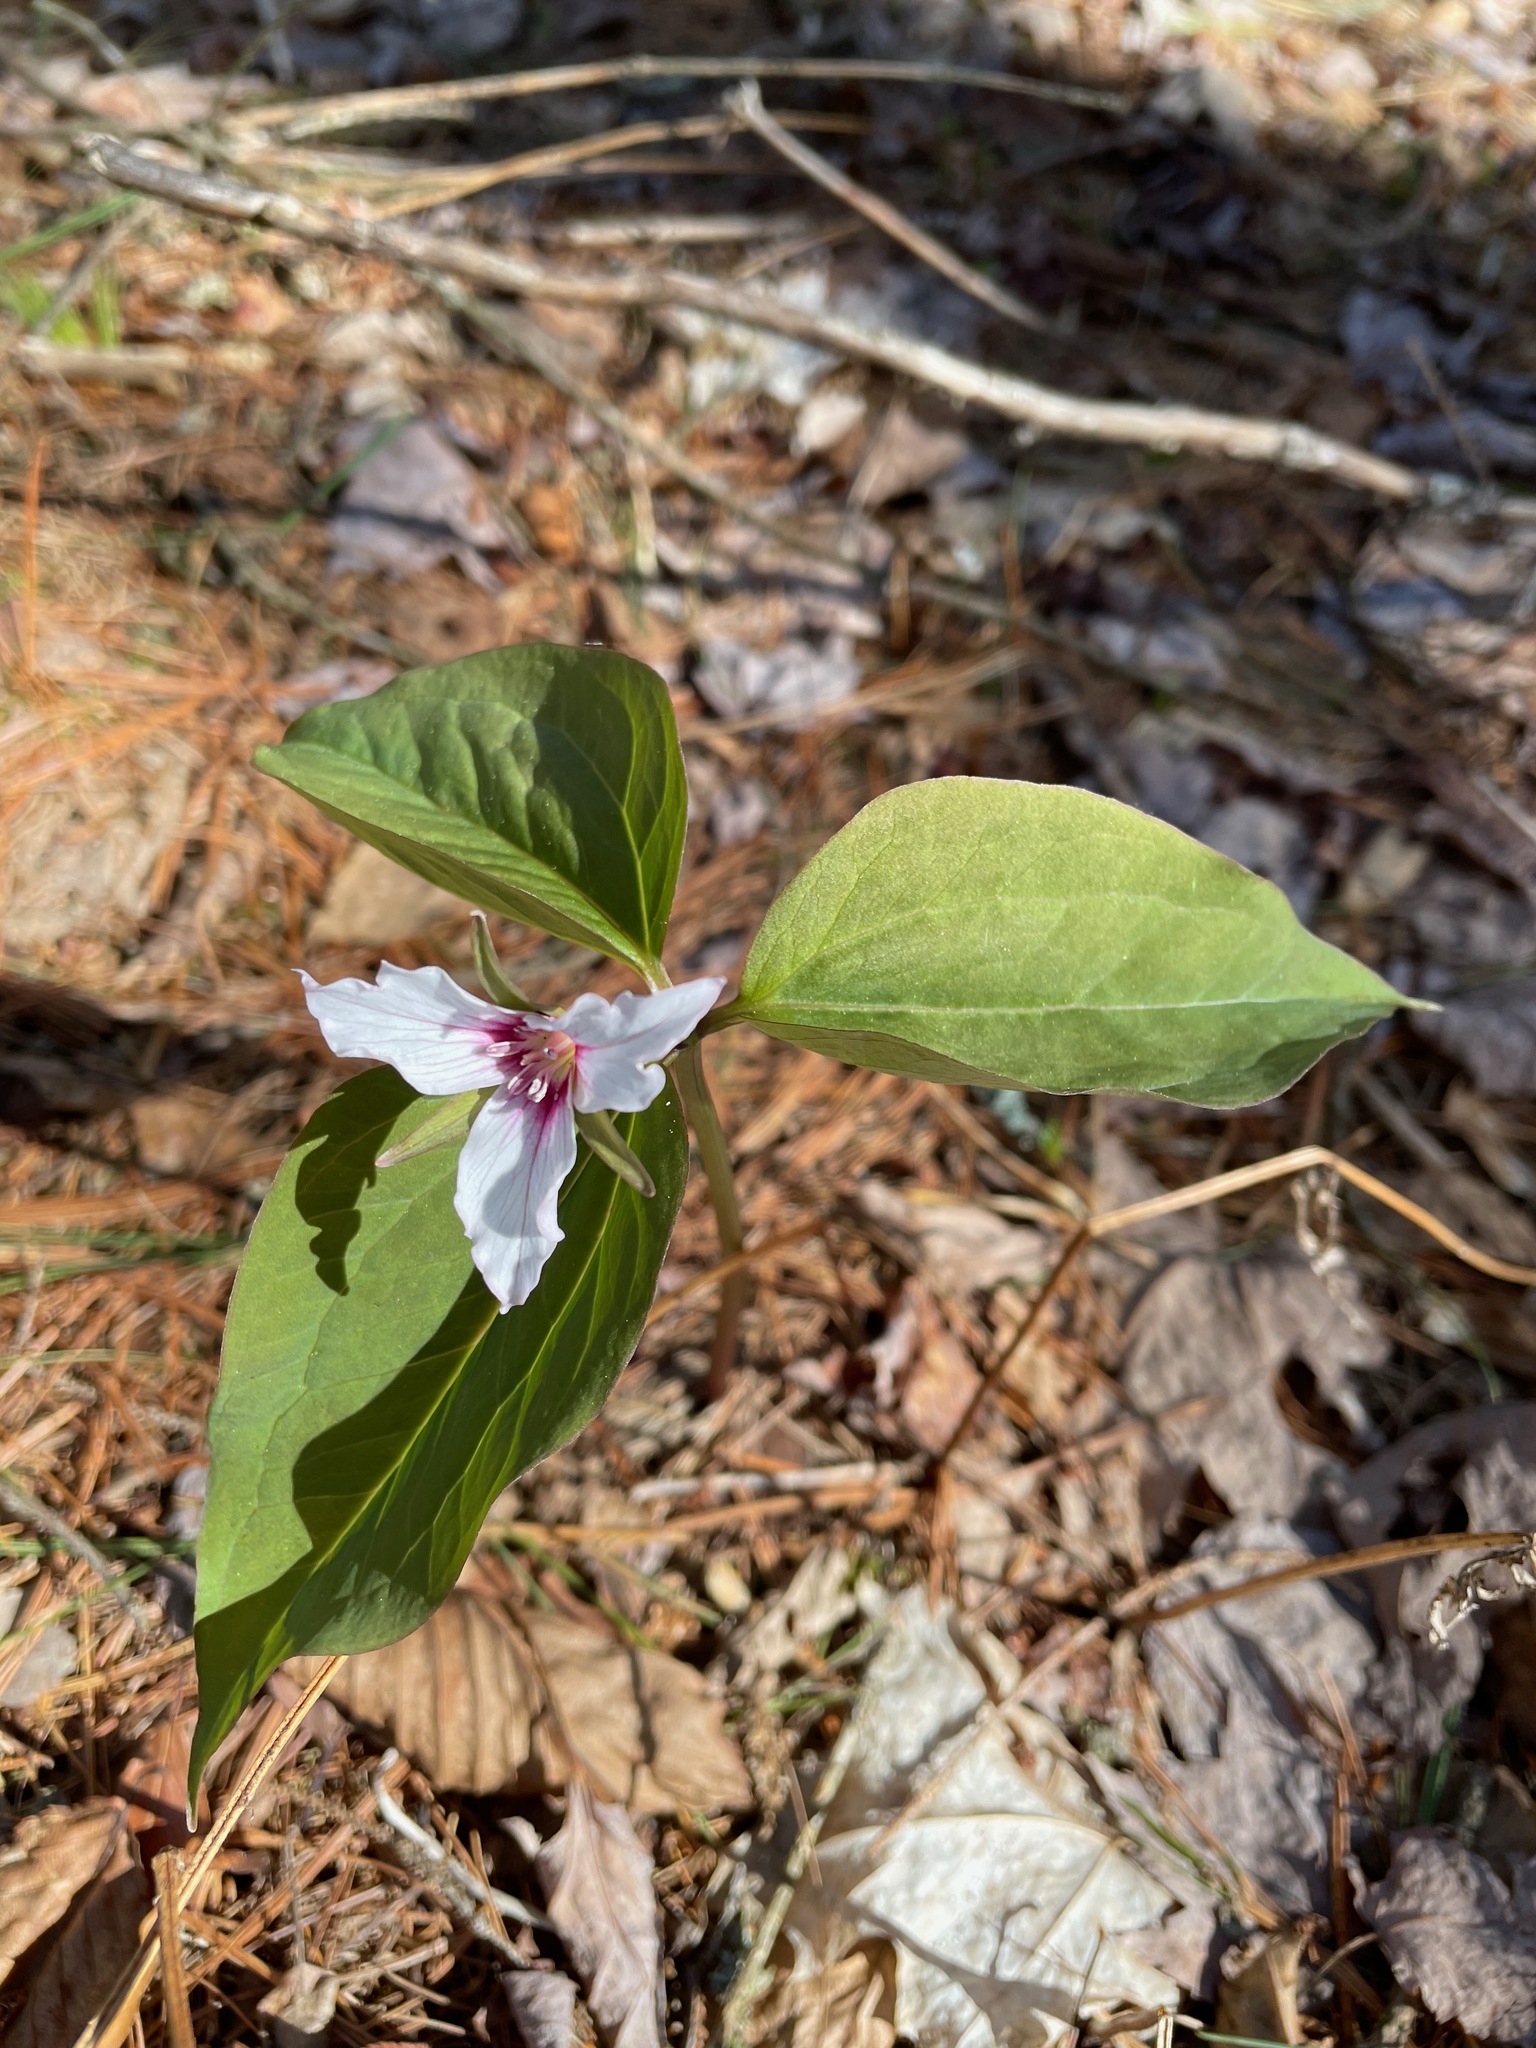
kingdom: Plantae
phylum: Tracheophyta
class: Liliopsida
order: Liliales
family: Melanthiaceae
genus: Trillium
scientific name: Trillium undulatum
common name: Paint trillium
